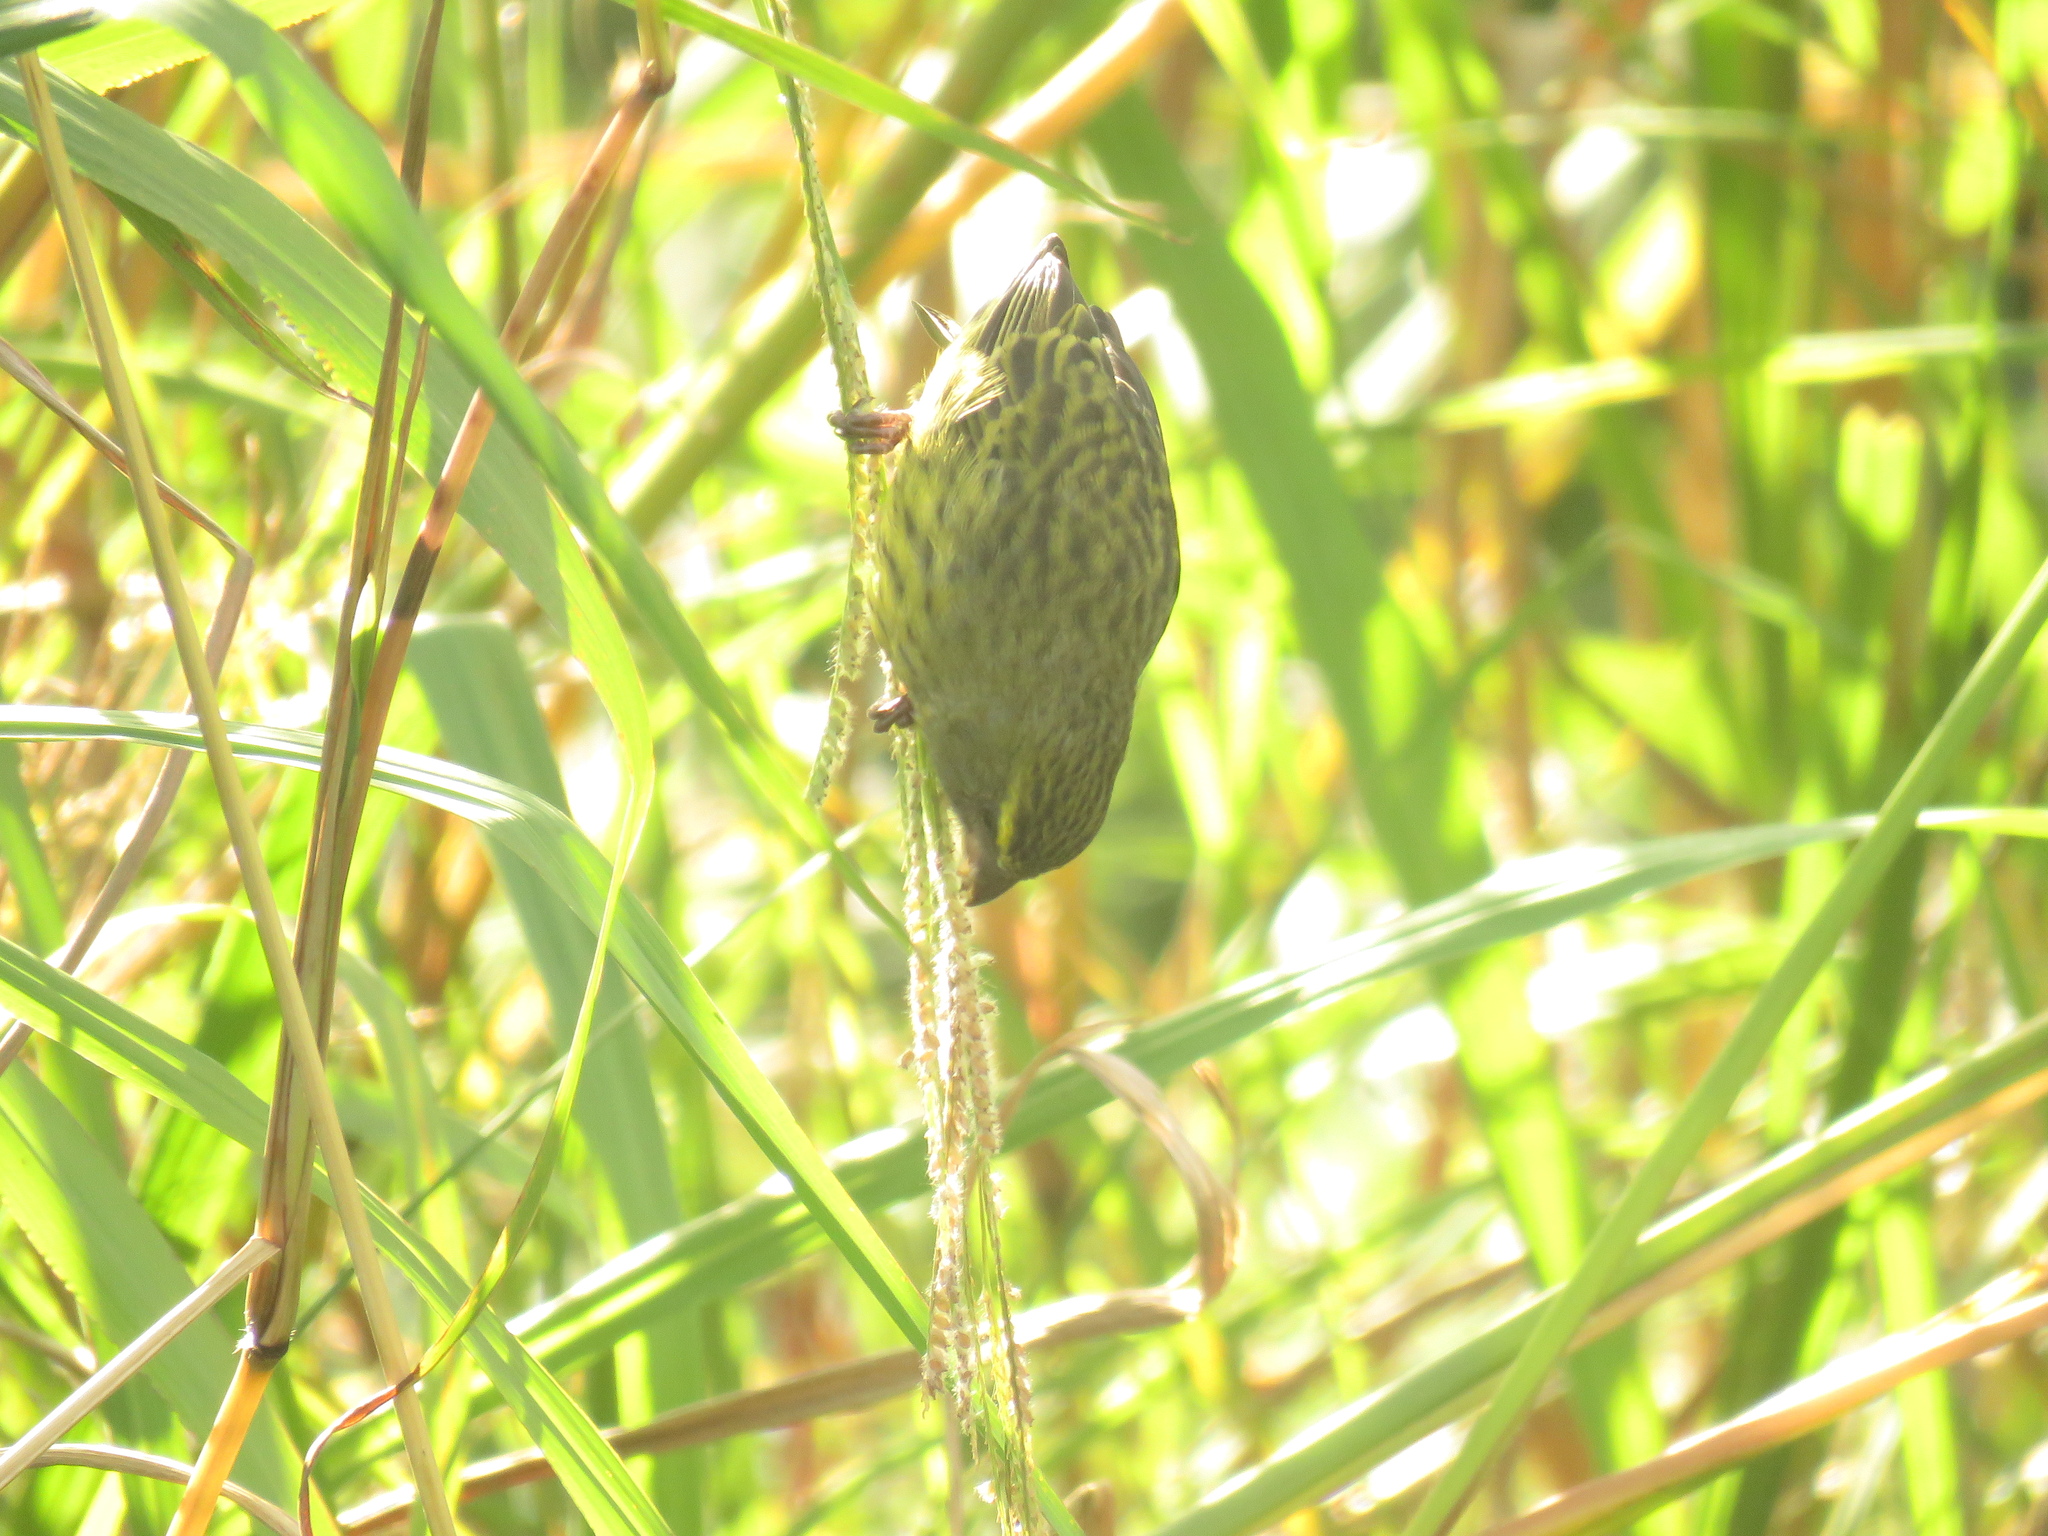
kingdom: Animalia
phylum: Chordata
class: Aves
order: Passeriformes
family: Fringillidae
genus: Crithagra
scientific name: Crithagra scotops
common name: Forest canary
